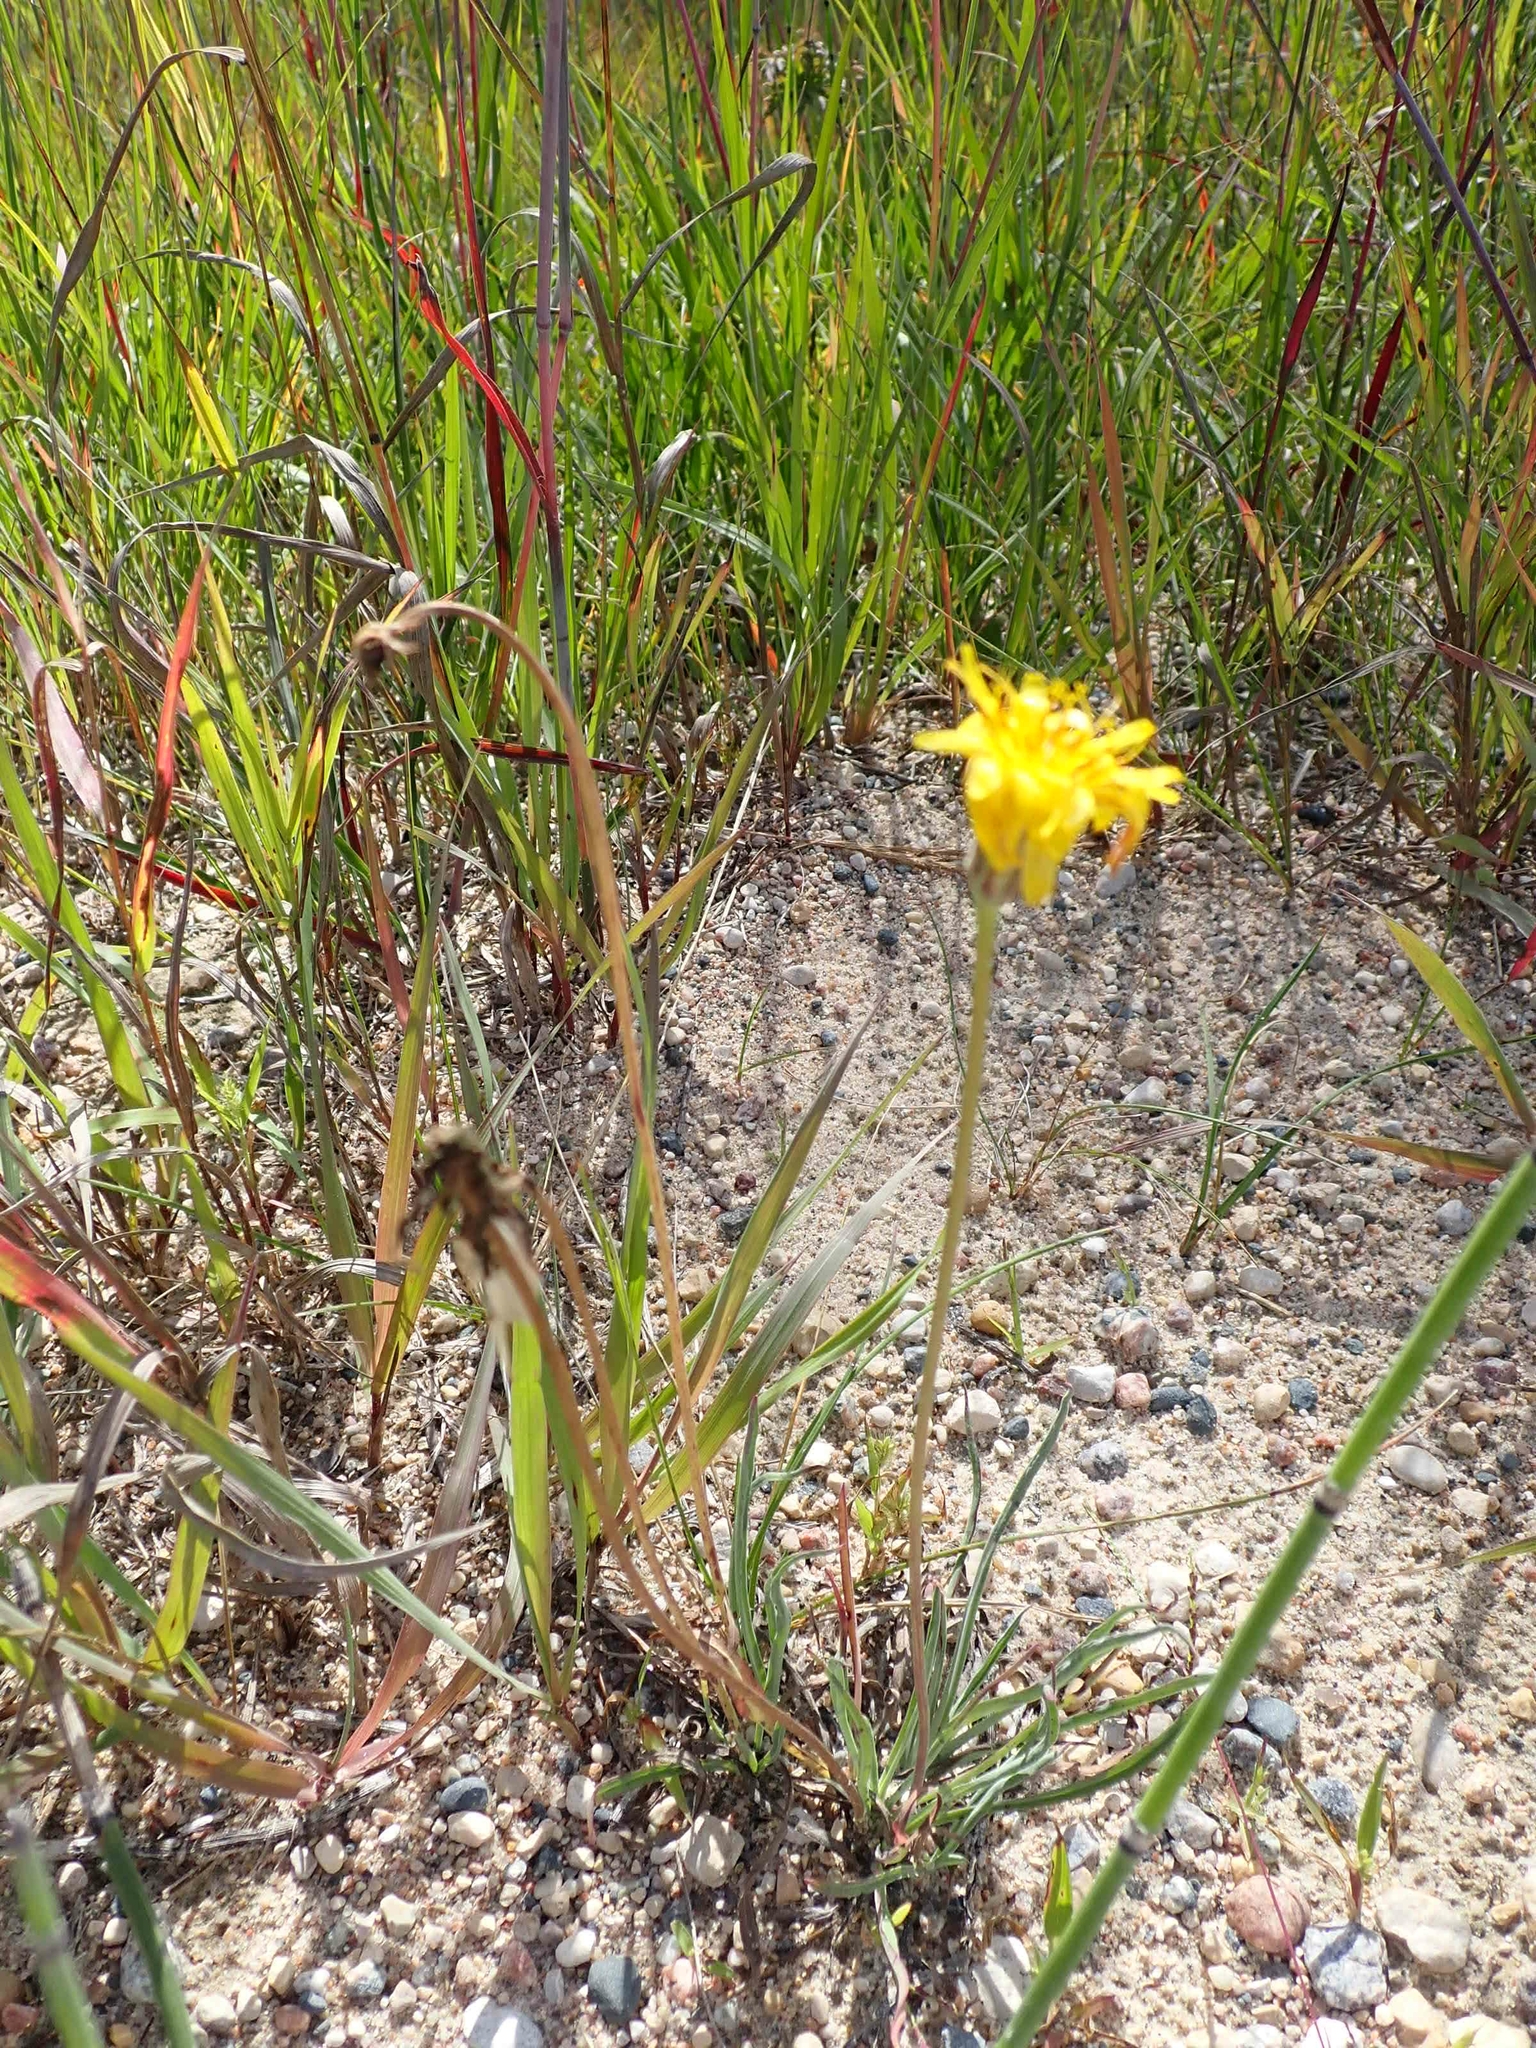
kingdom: Plantae
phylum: Tracheophyta
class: Magnoliopsida
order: Asterales
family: Asteraceae
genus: Agoseris
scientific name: Agoseris glauca
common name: Prairie agoseris
